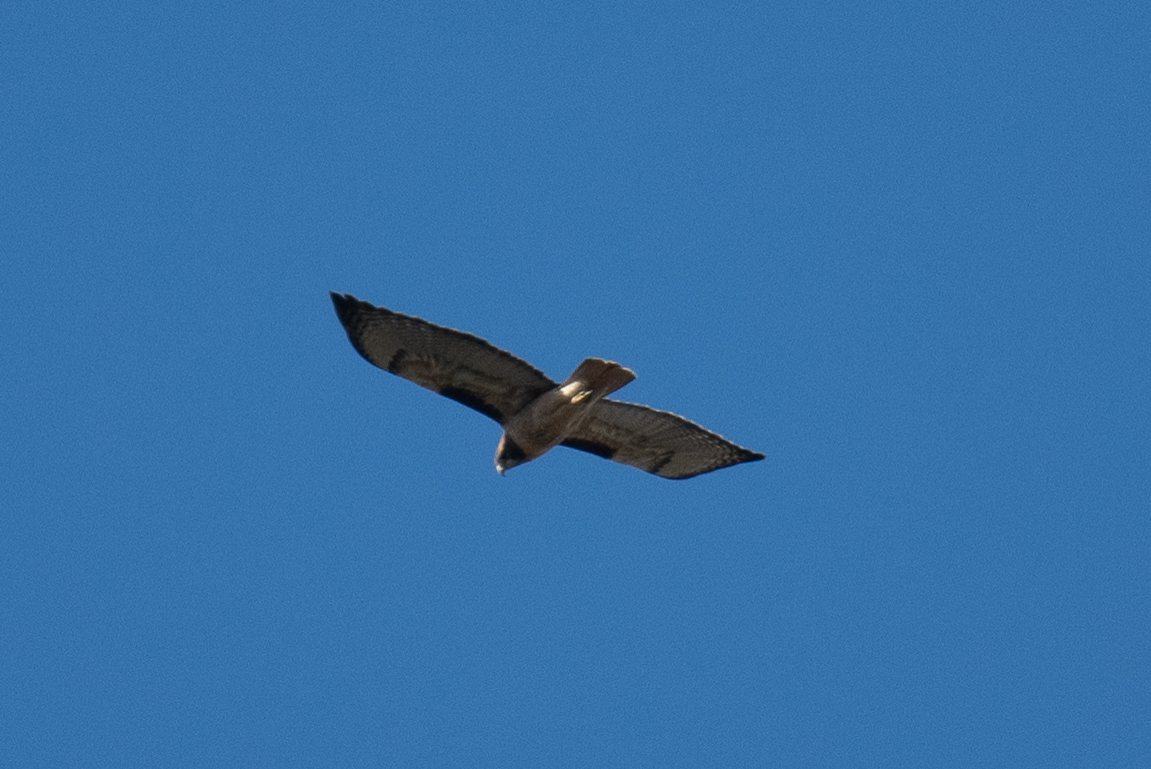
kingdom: Animalia
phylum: Chordata
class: Aves
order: Accipitriformes
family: Accipitridae
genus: Buteo
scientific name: Buteo jamaicensis
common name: Red-tailed hawk
